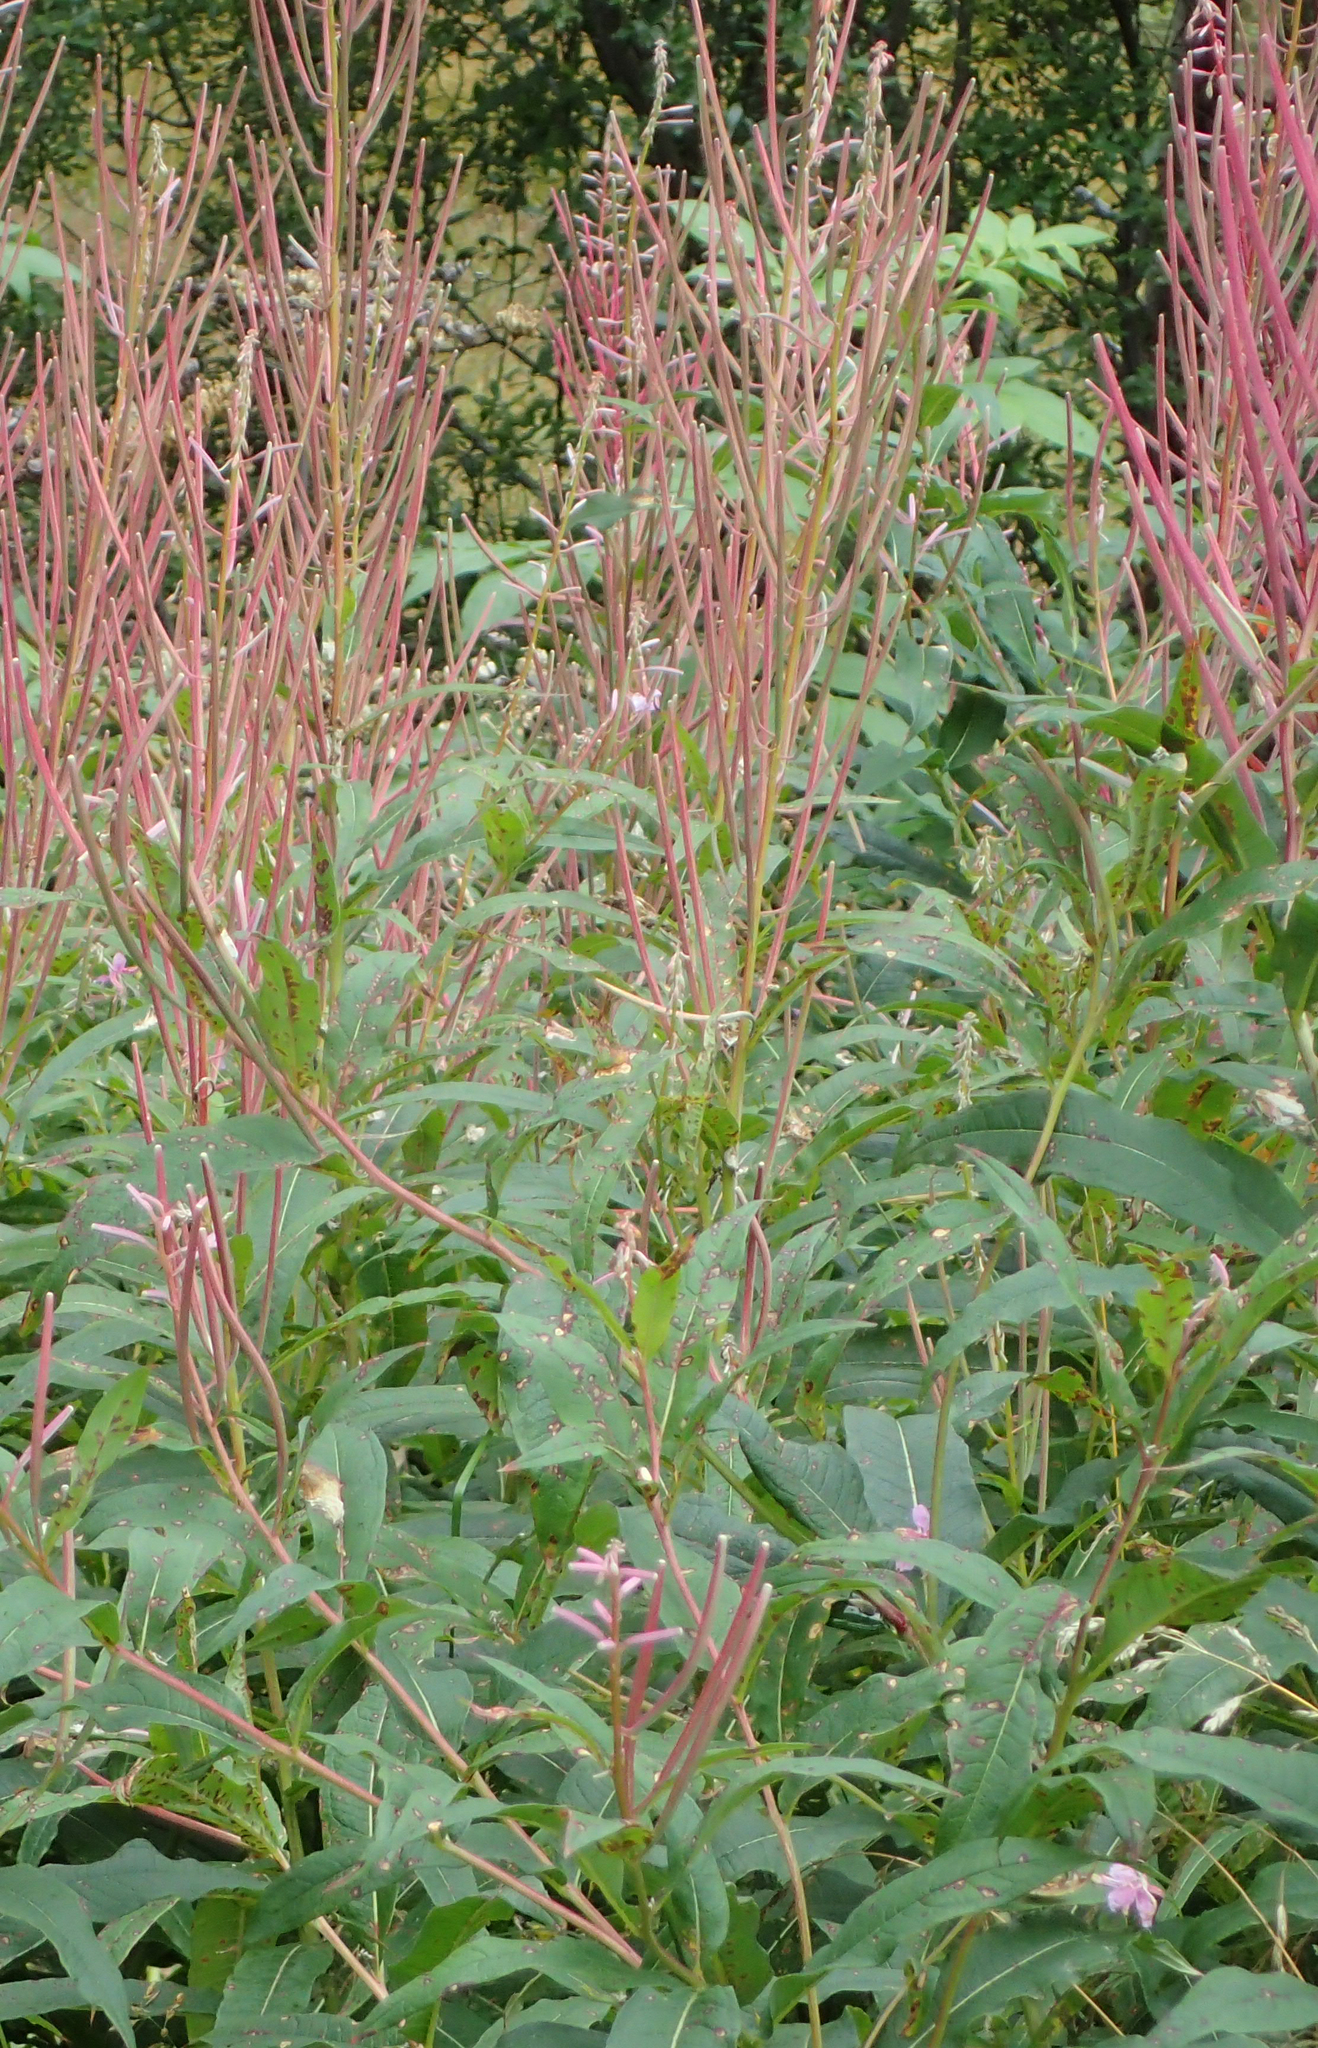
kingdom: Plantae
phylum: Tracheophyta
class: Magnoliopsida
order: Myrtales
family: Onagraceae
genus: Chamaenerion
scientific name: Chamaenerion angustifolium
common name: Fireweed
